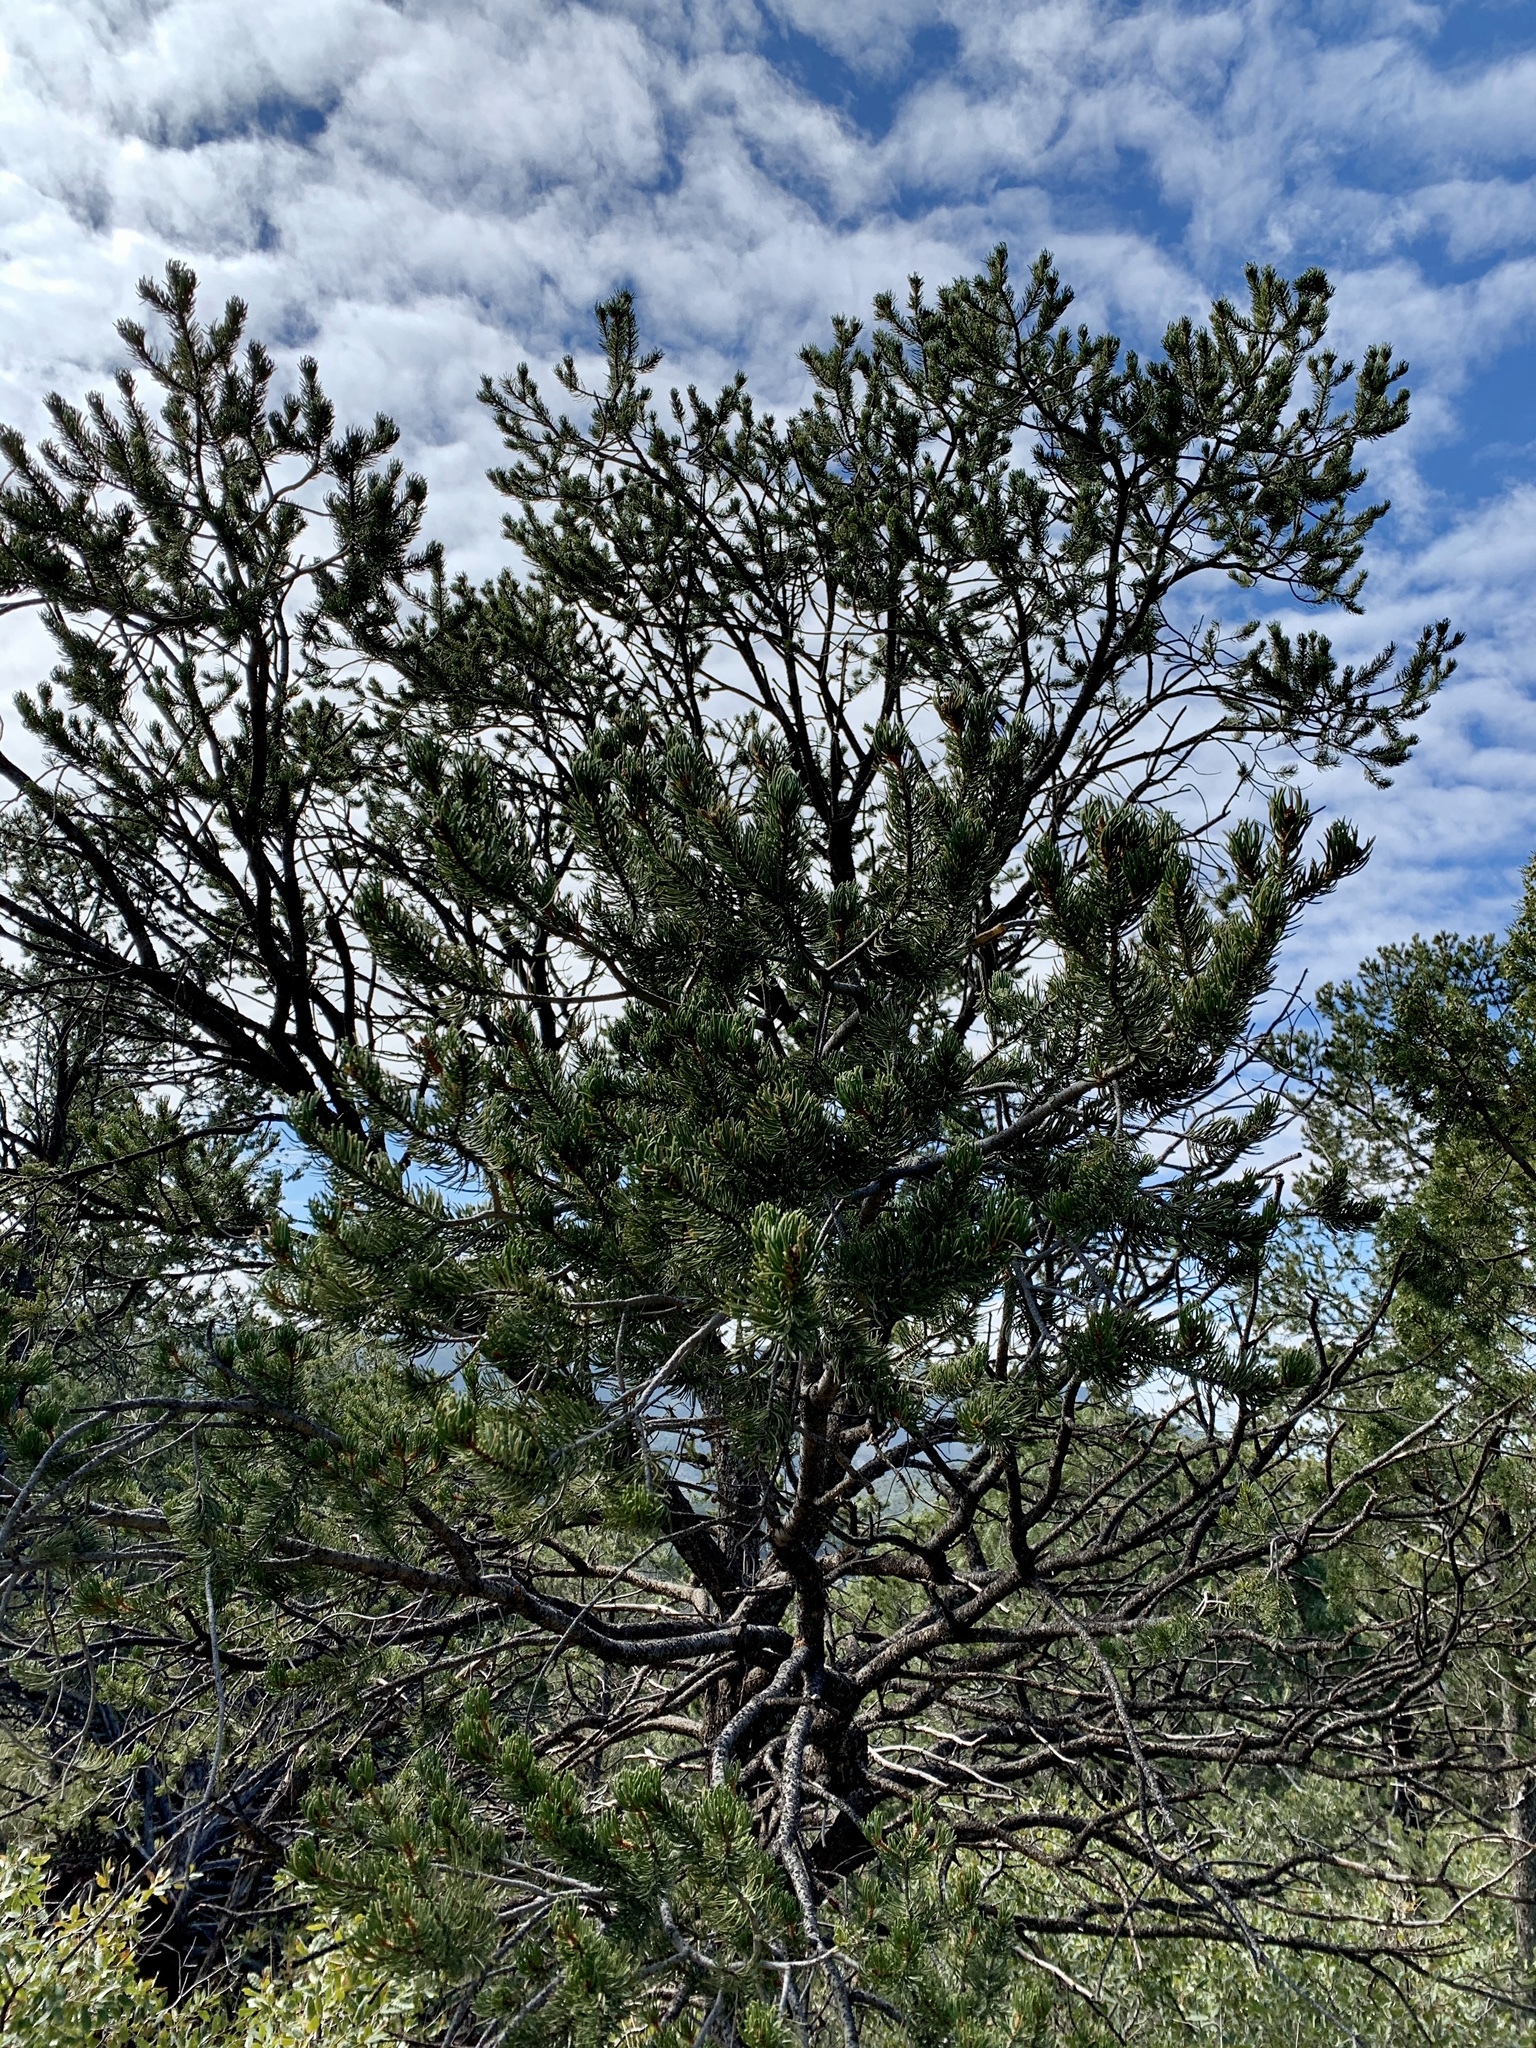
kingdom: Plantae
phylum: Tracheophyta
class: Pinopsida
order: Pinales
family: Pinaceae
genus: Pinus
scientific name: Pinus edulis
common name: Colorado pinyon
